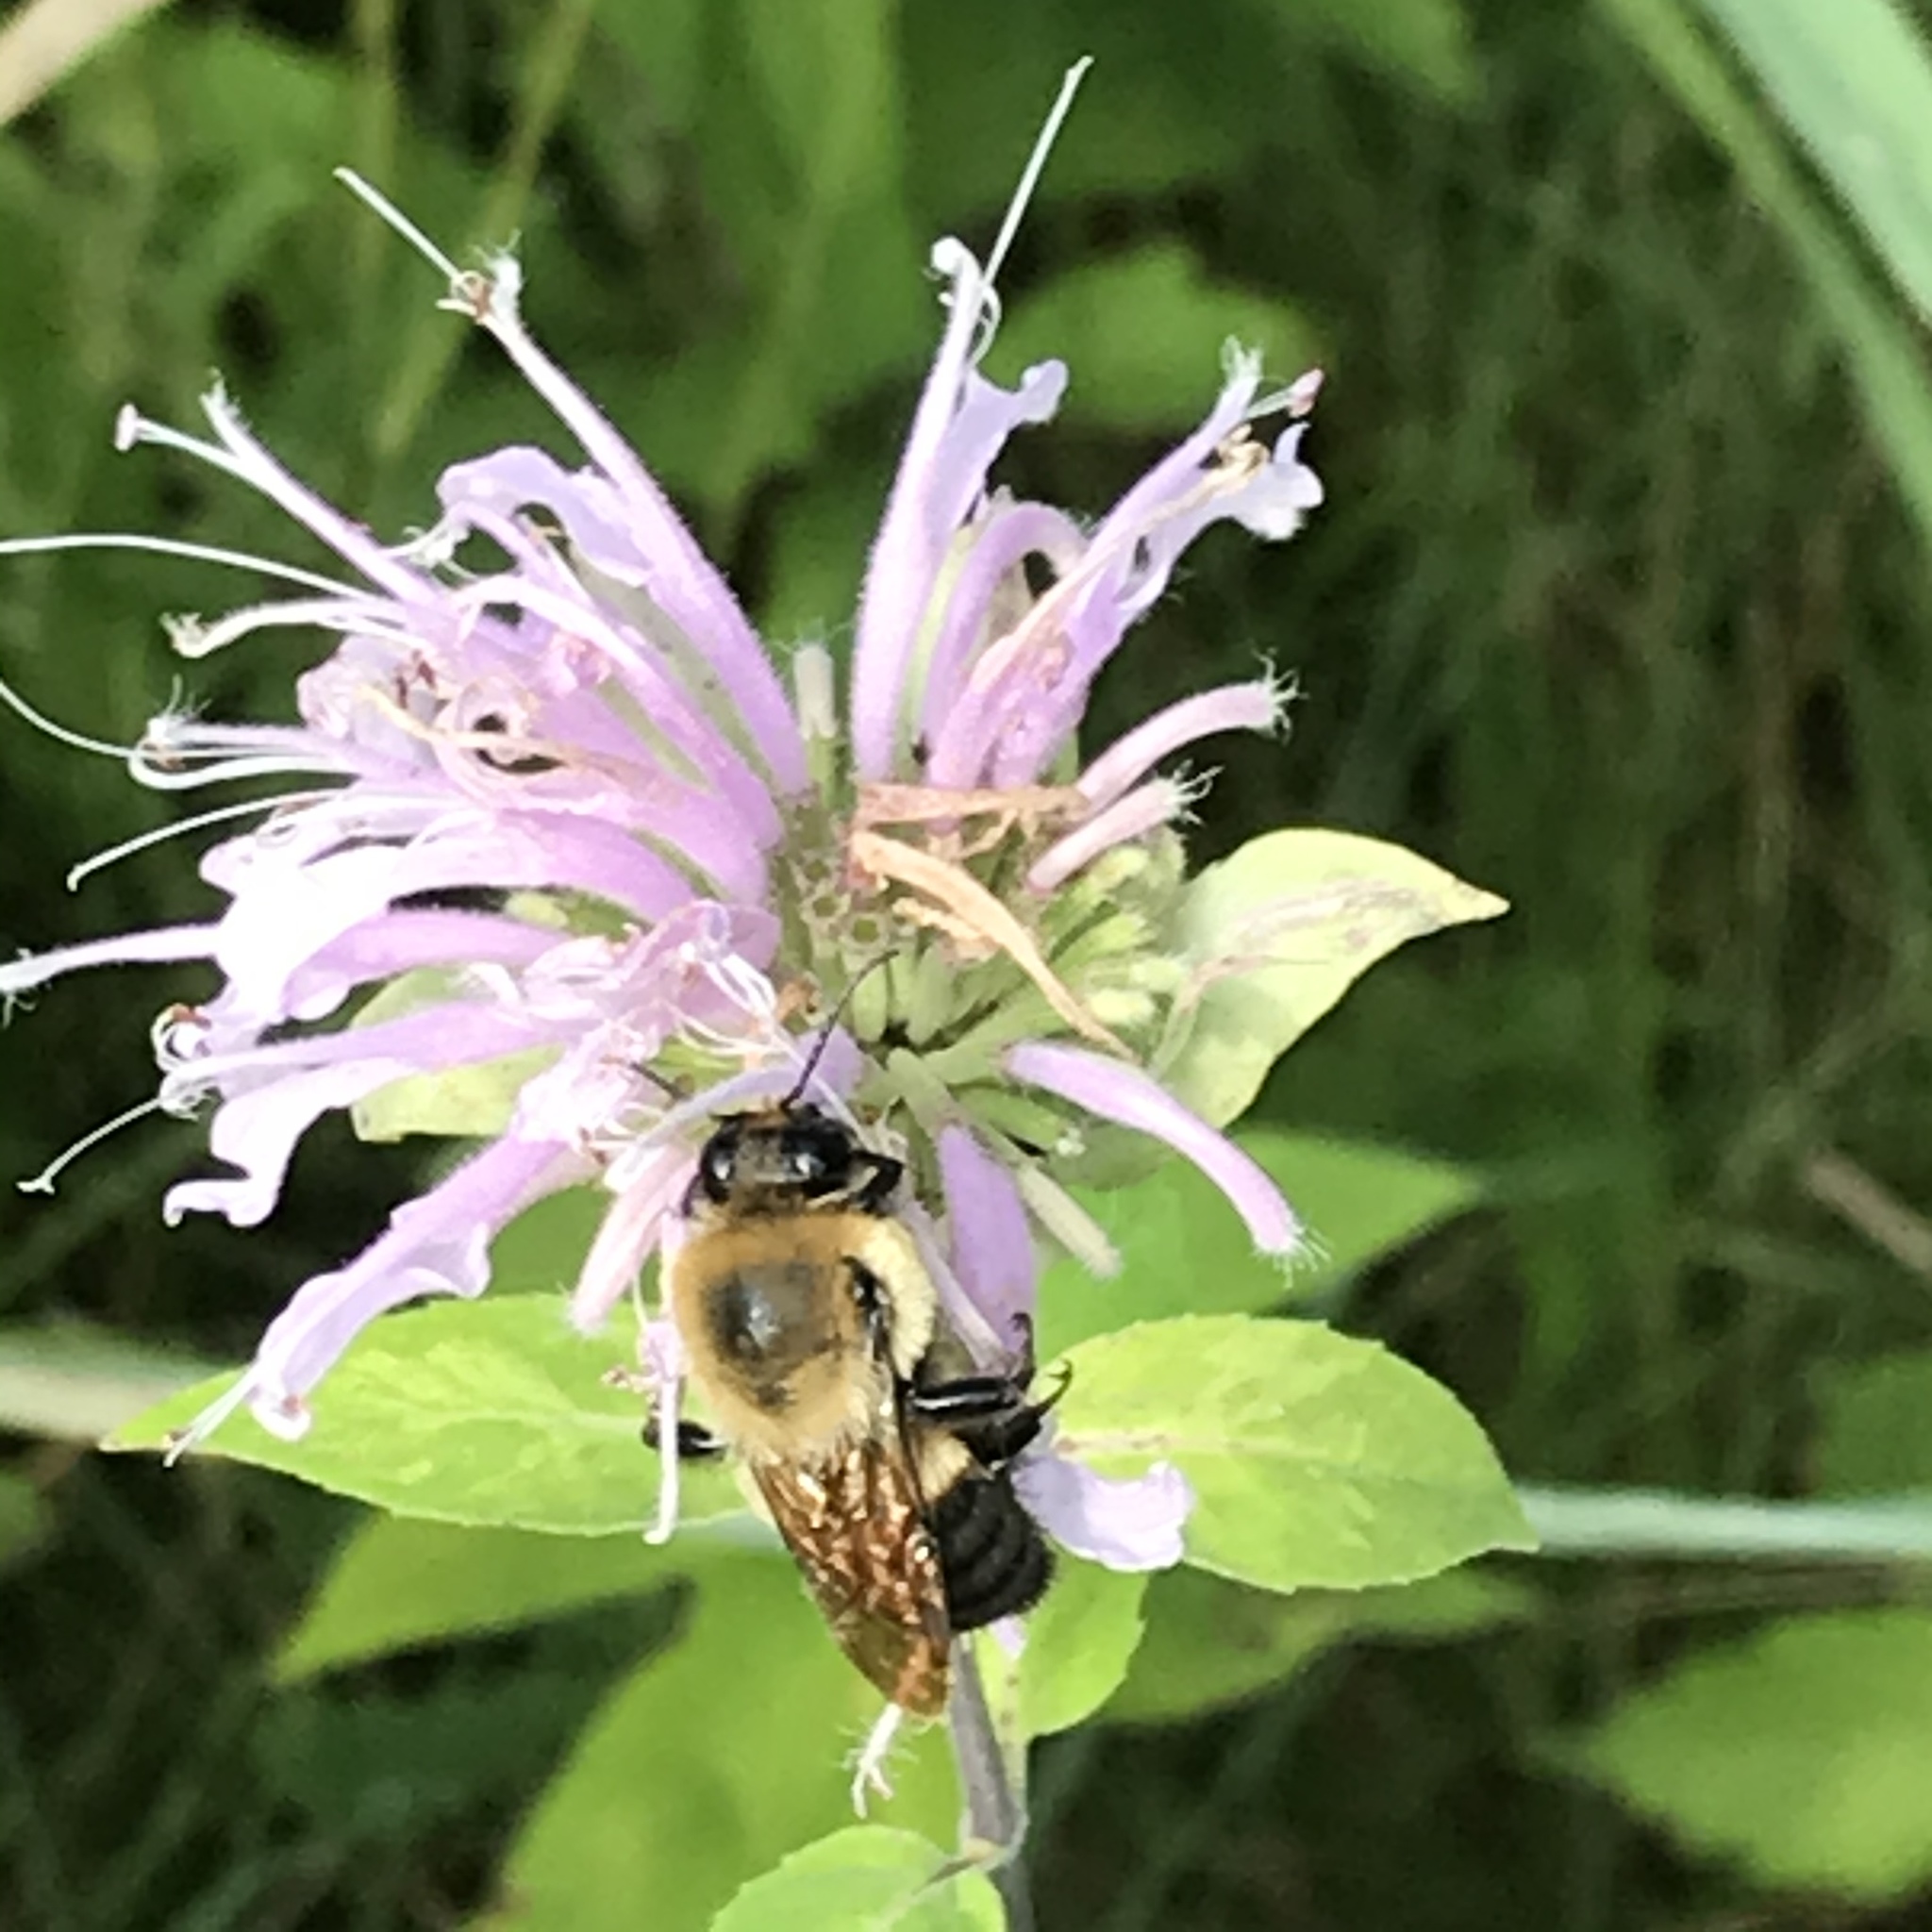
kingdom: Animalia
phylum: Arthropoda
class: Insecta
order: Hymenoptera
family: Apidae
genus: Bombus
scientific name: Bombus griseocollis
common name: Brown-belted bumble bee
